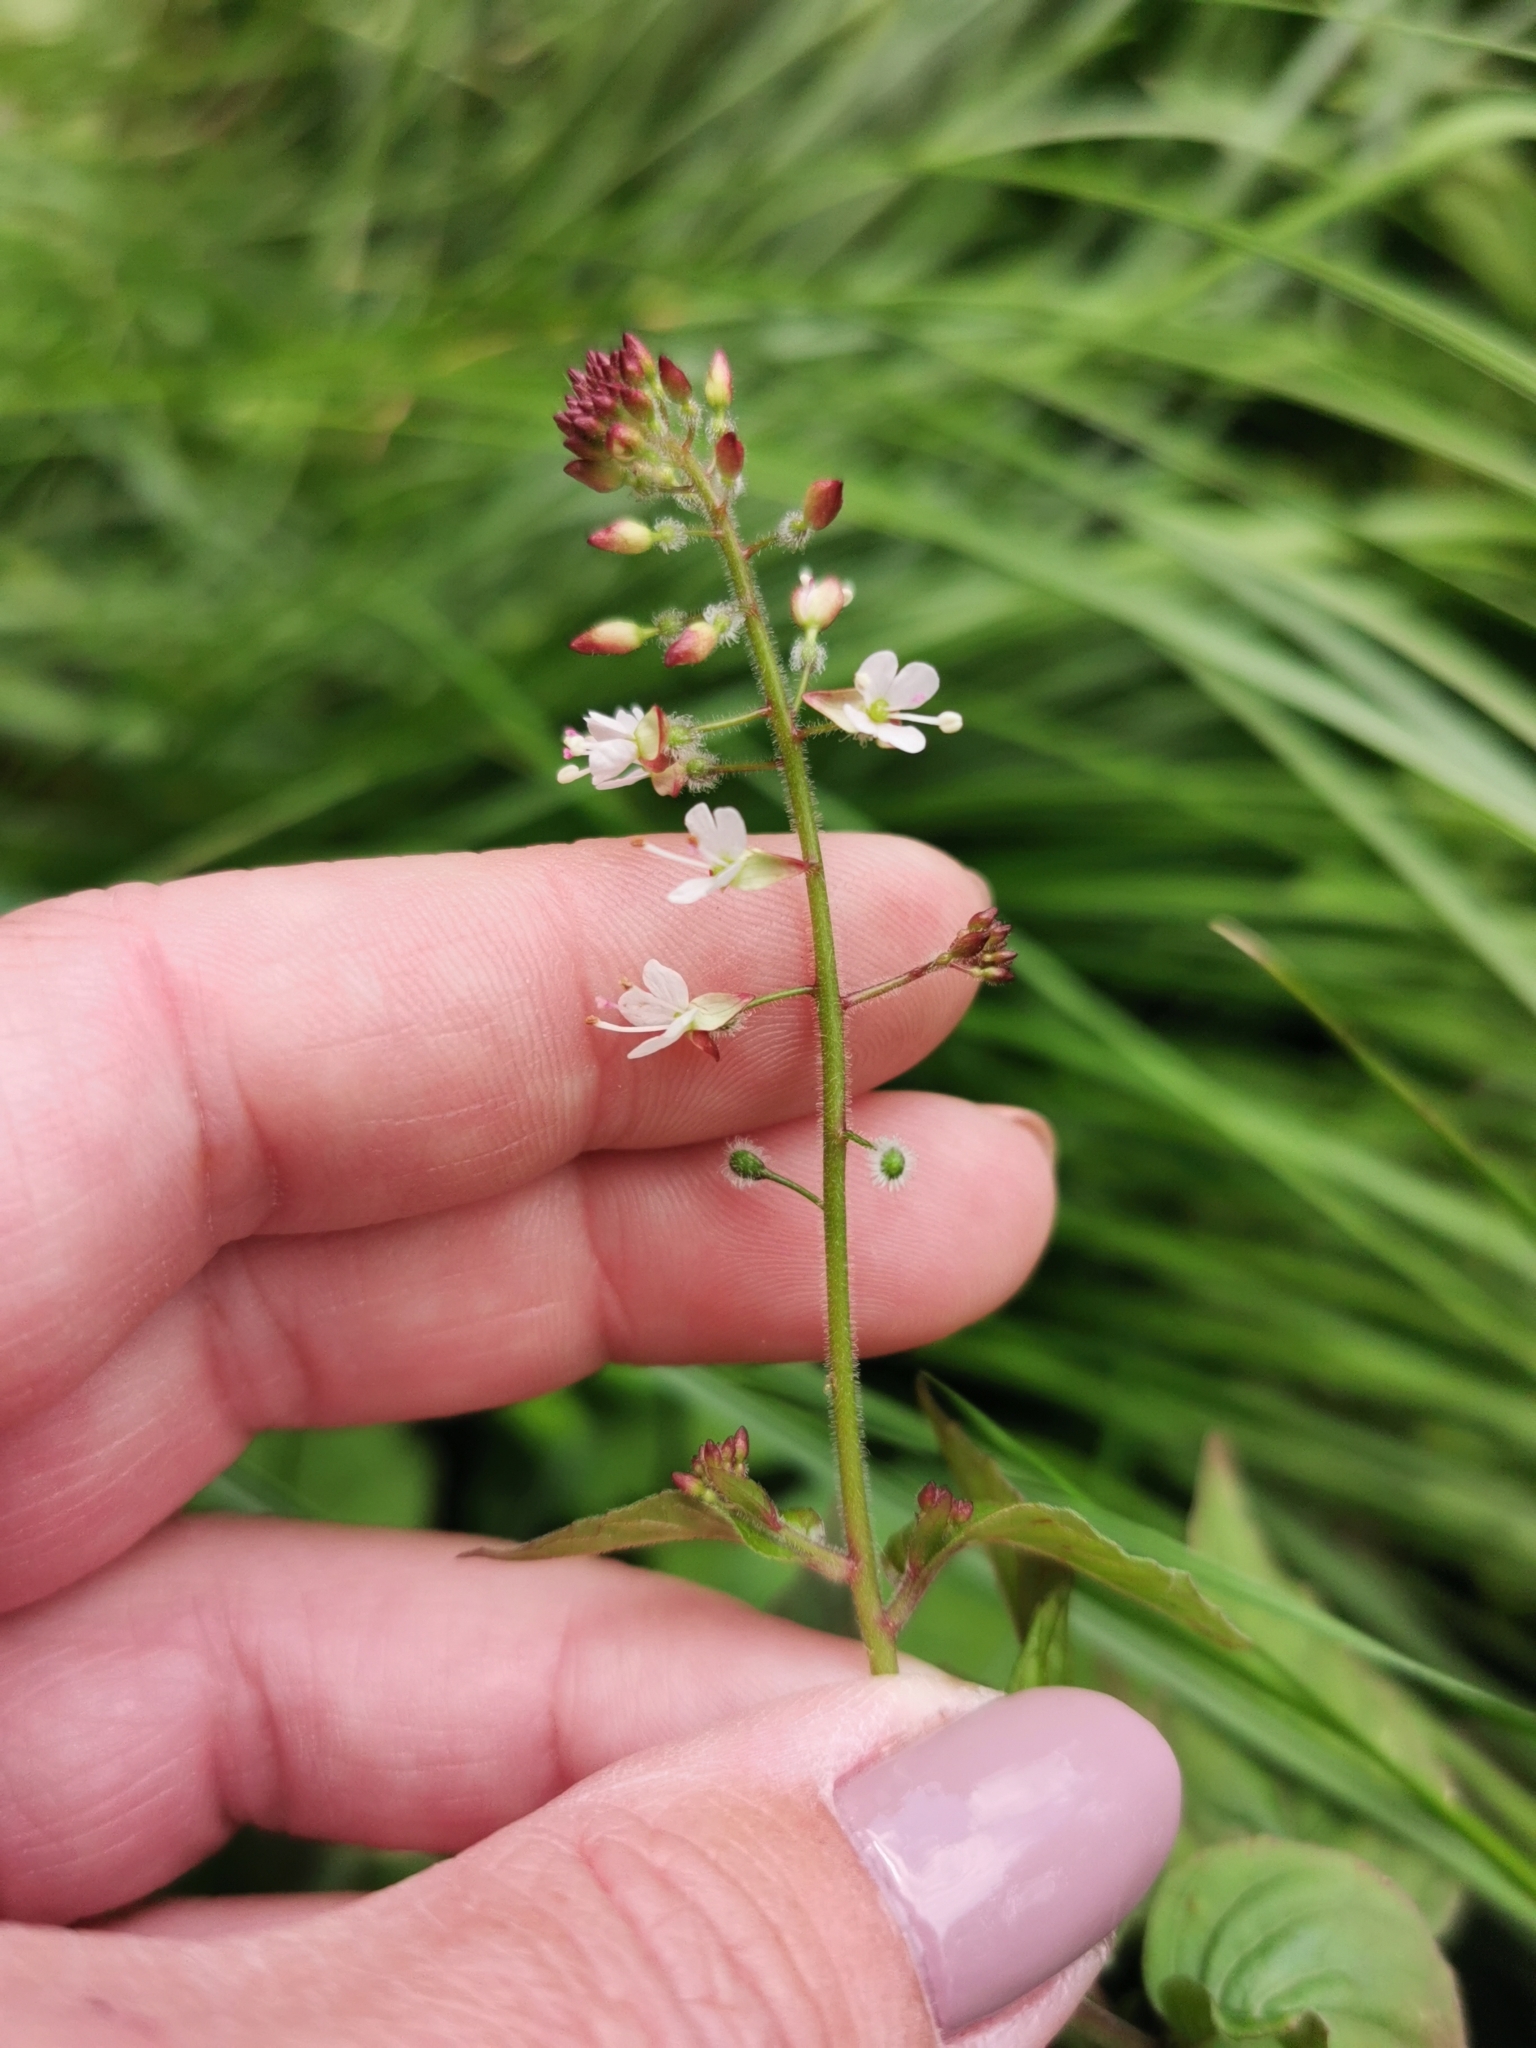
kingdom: Plantae
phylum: Tracheophyta
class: Magnoliopsida
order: Myrtales
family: Onagraceae
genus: Circaea
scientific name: Circaea lutetiana
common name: Enchanter's-nightshade
